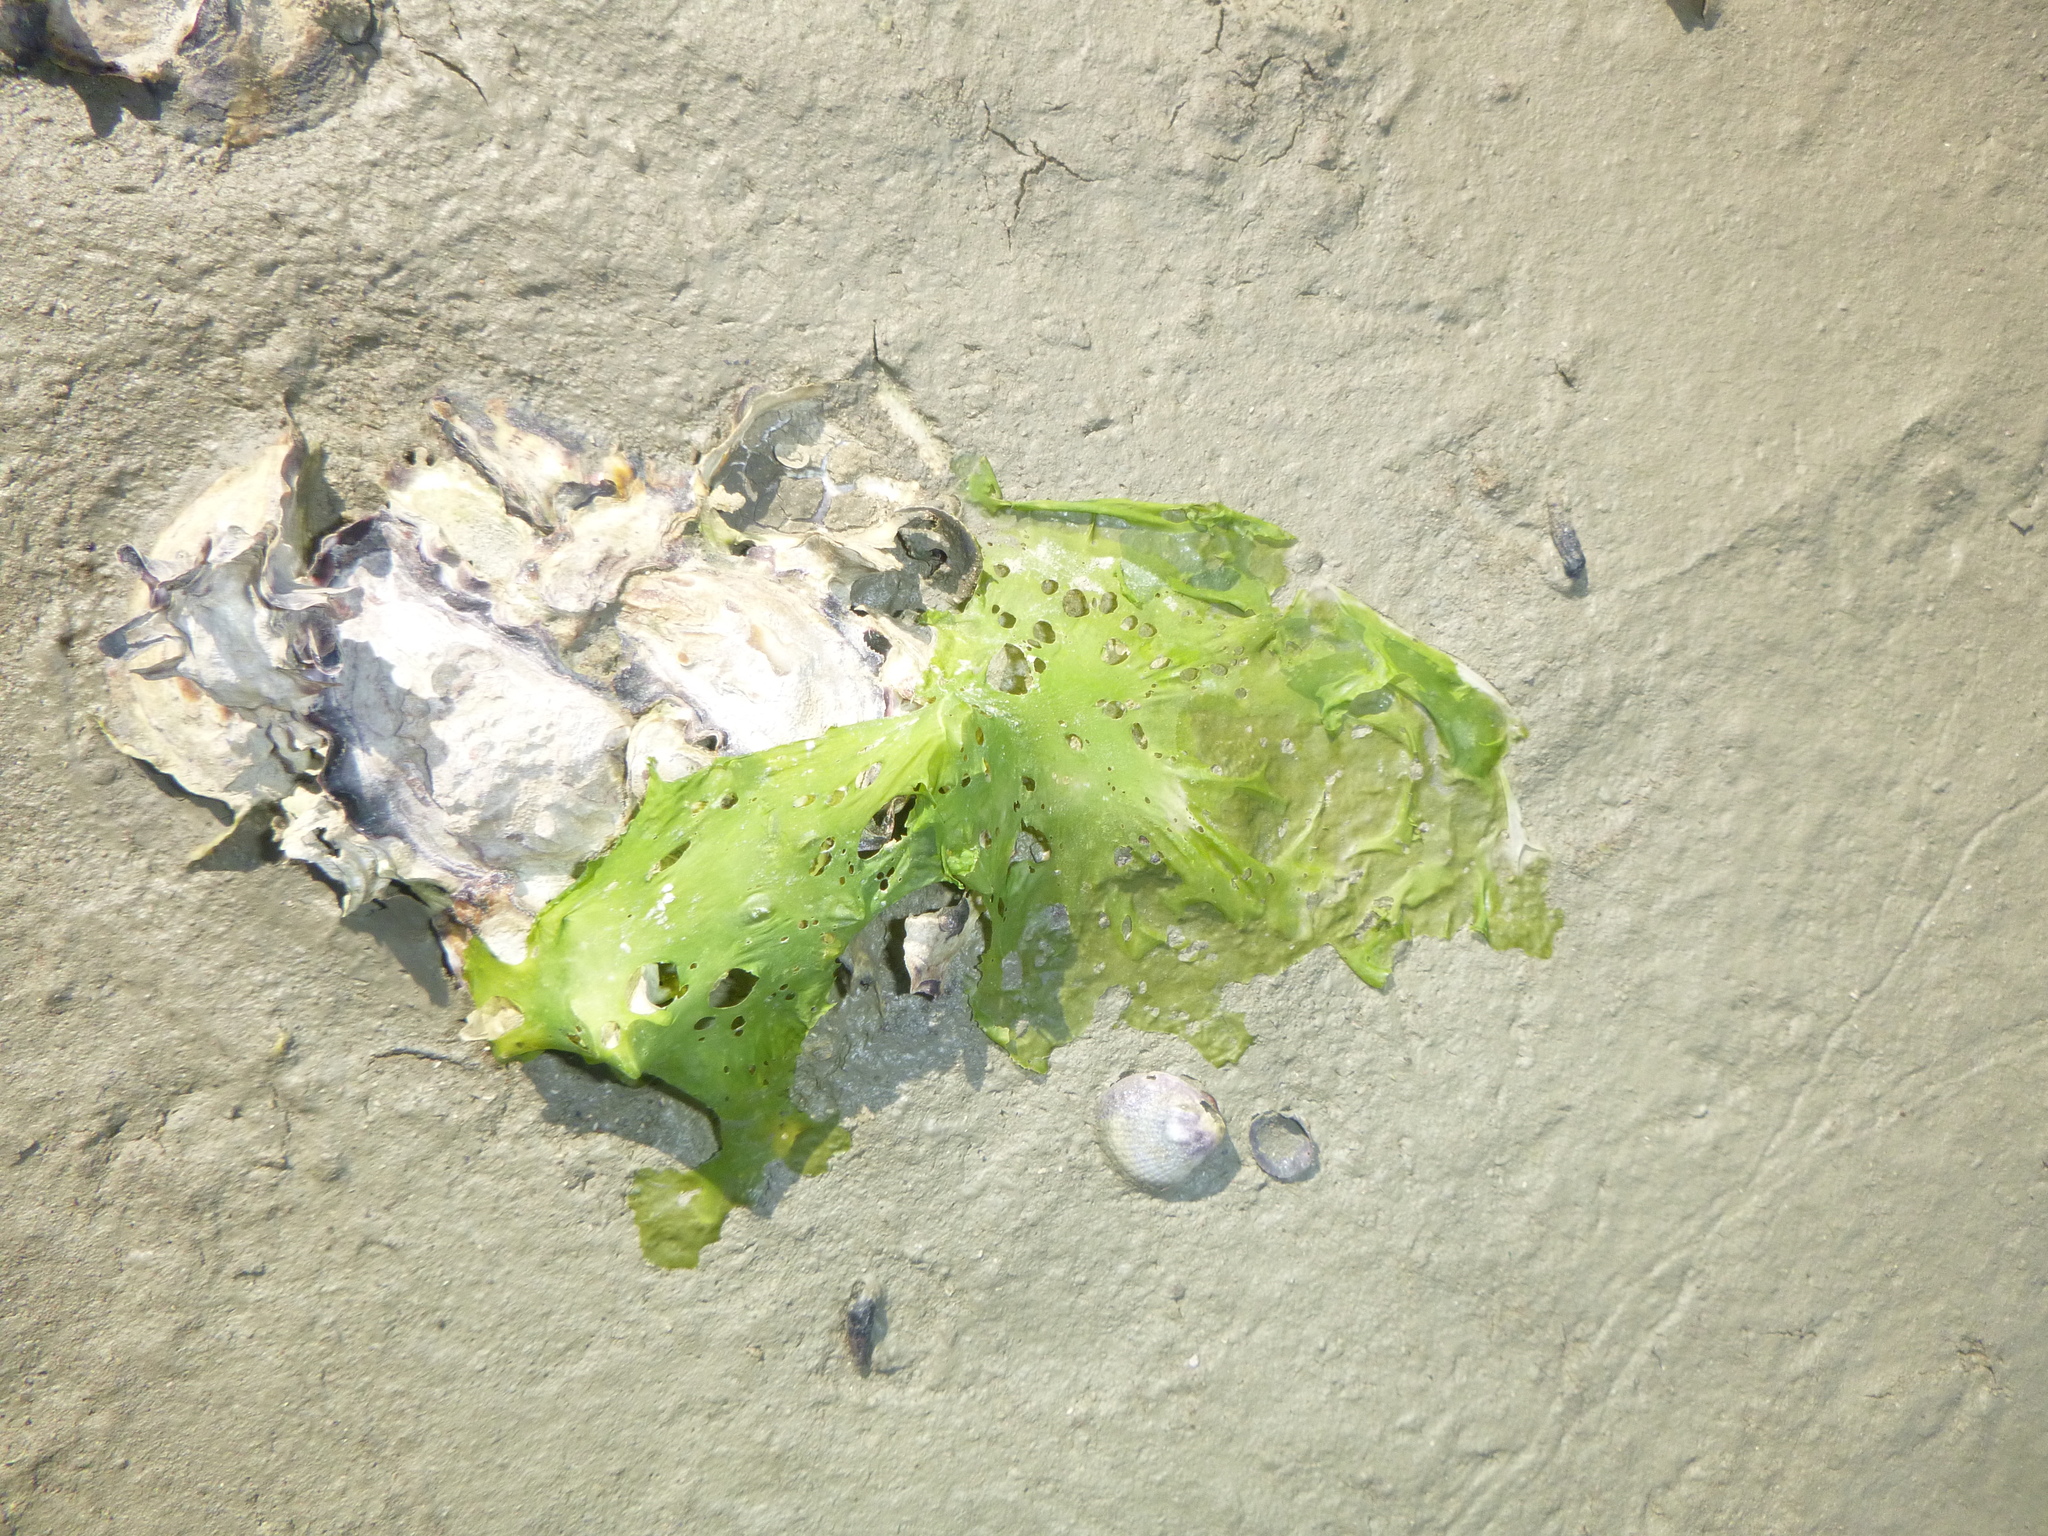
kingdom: Plantae
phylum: Chlorophyta
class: Ulvophyceae
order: Ulvales
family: Ulvaceae
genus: Ulva
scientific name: Ulva
